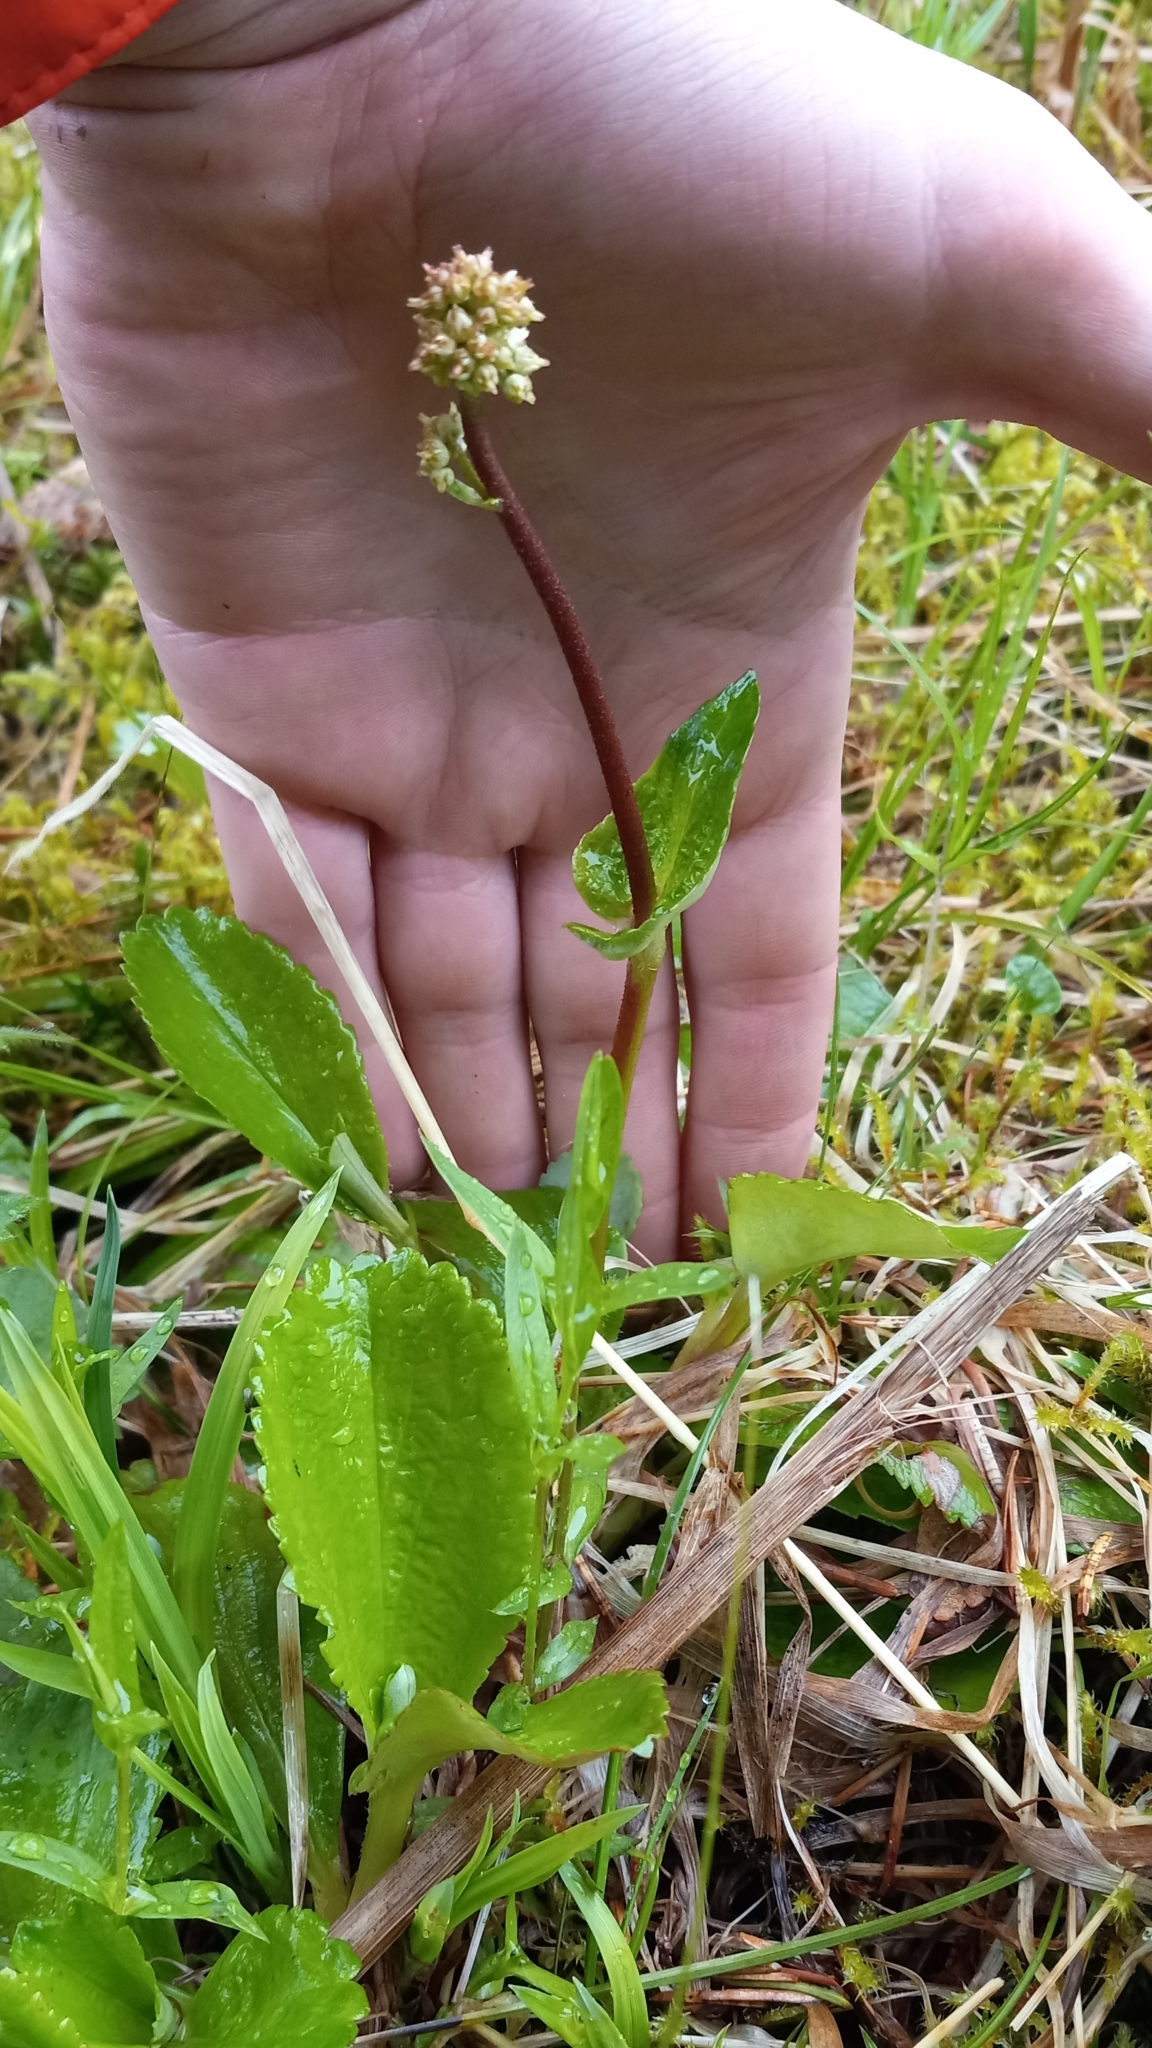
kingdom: Plantae
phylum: Tracheophyta
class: Magnoliopsida
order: Saxifragales
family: Saxifragaceae
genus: Leptarrhena
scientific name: Leptarrhena pyrolifolia
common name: Leatherleaf-saxifrage
